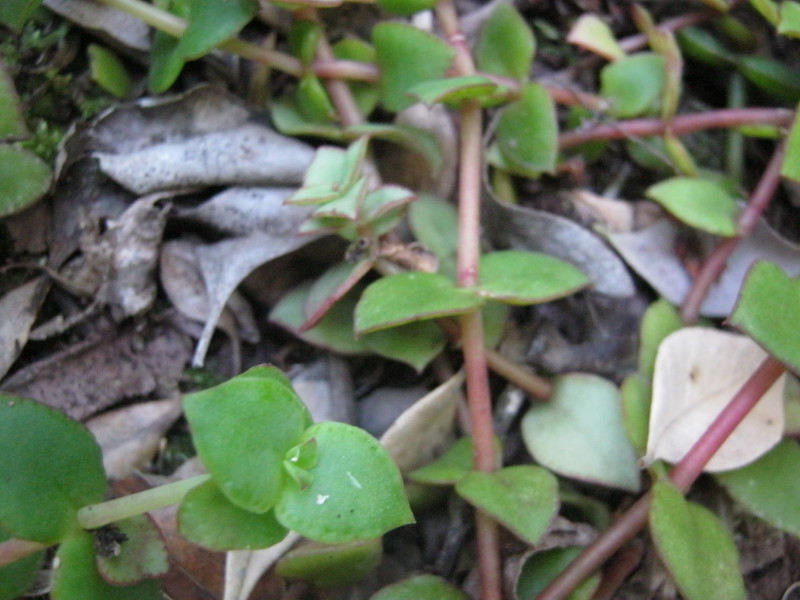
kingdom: Plantae
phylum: Tracheophyta
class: Magnoliopsida
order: Saxifragales
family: Crassulaceae
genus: Crassula
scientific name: Crassula pellucida
